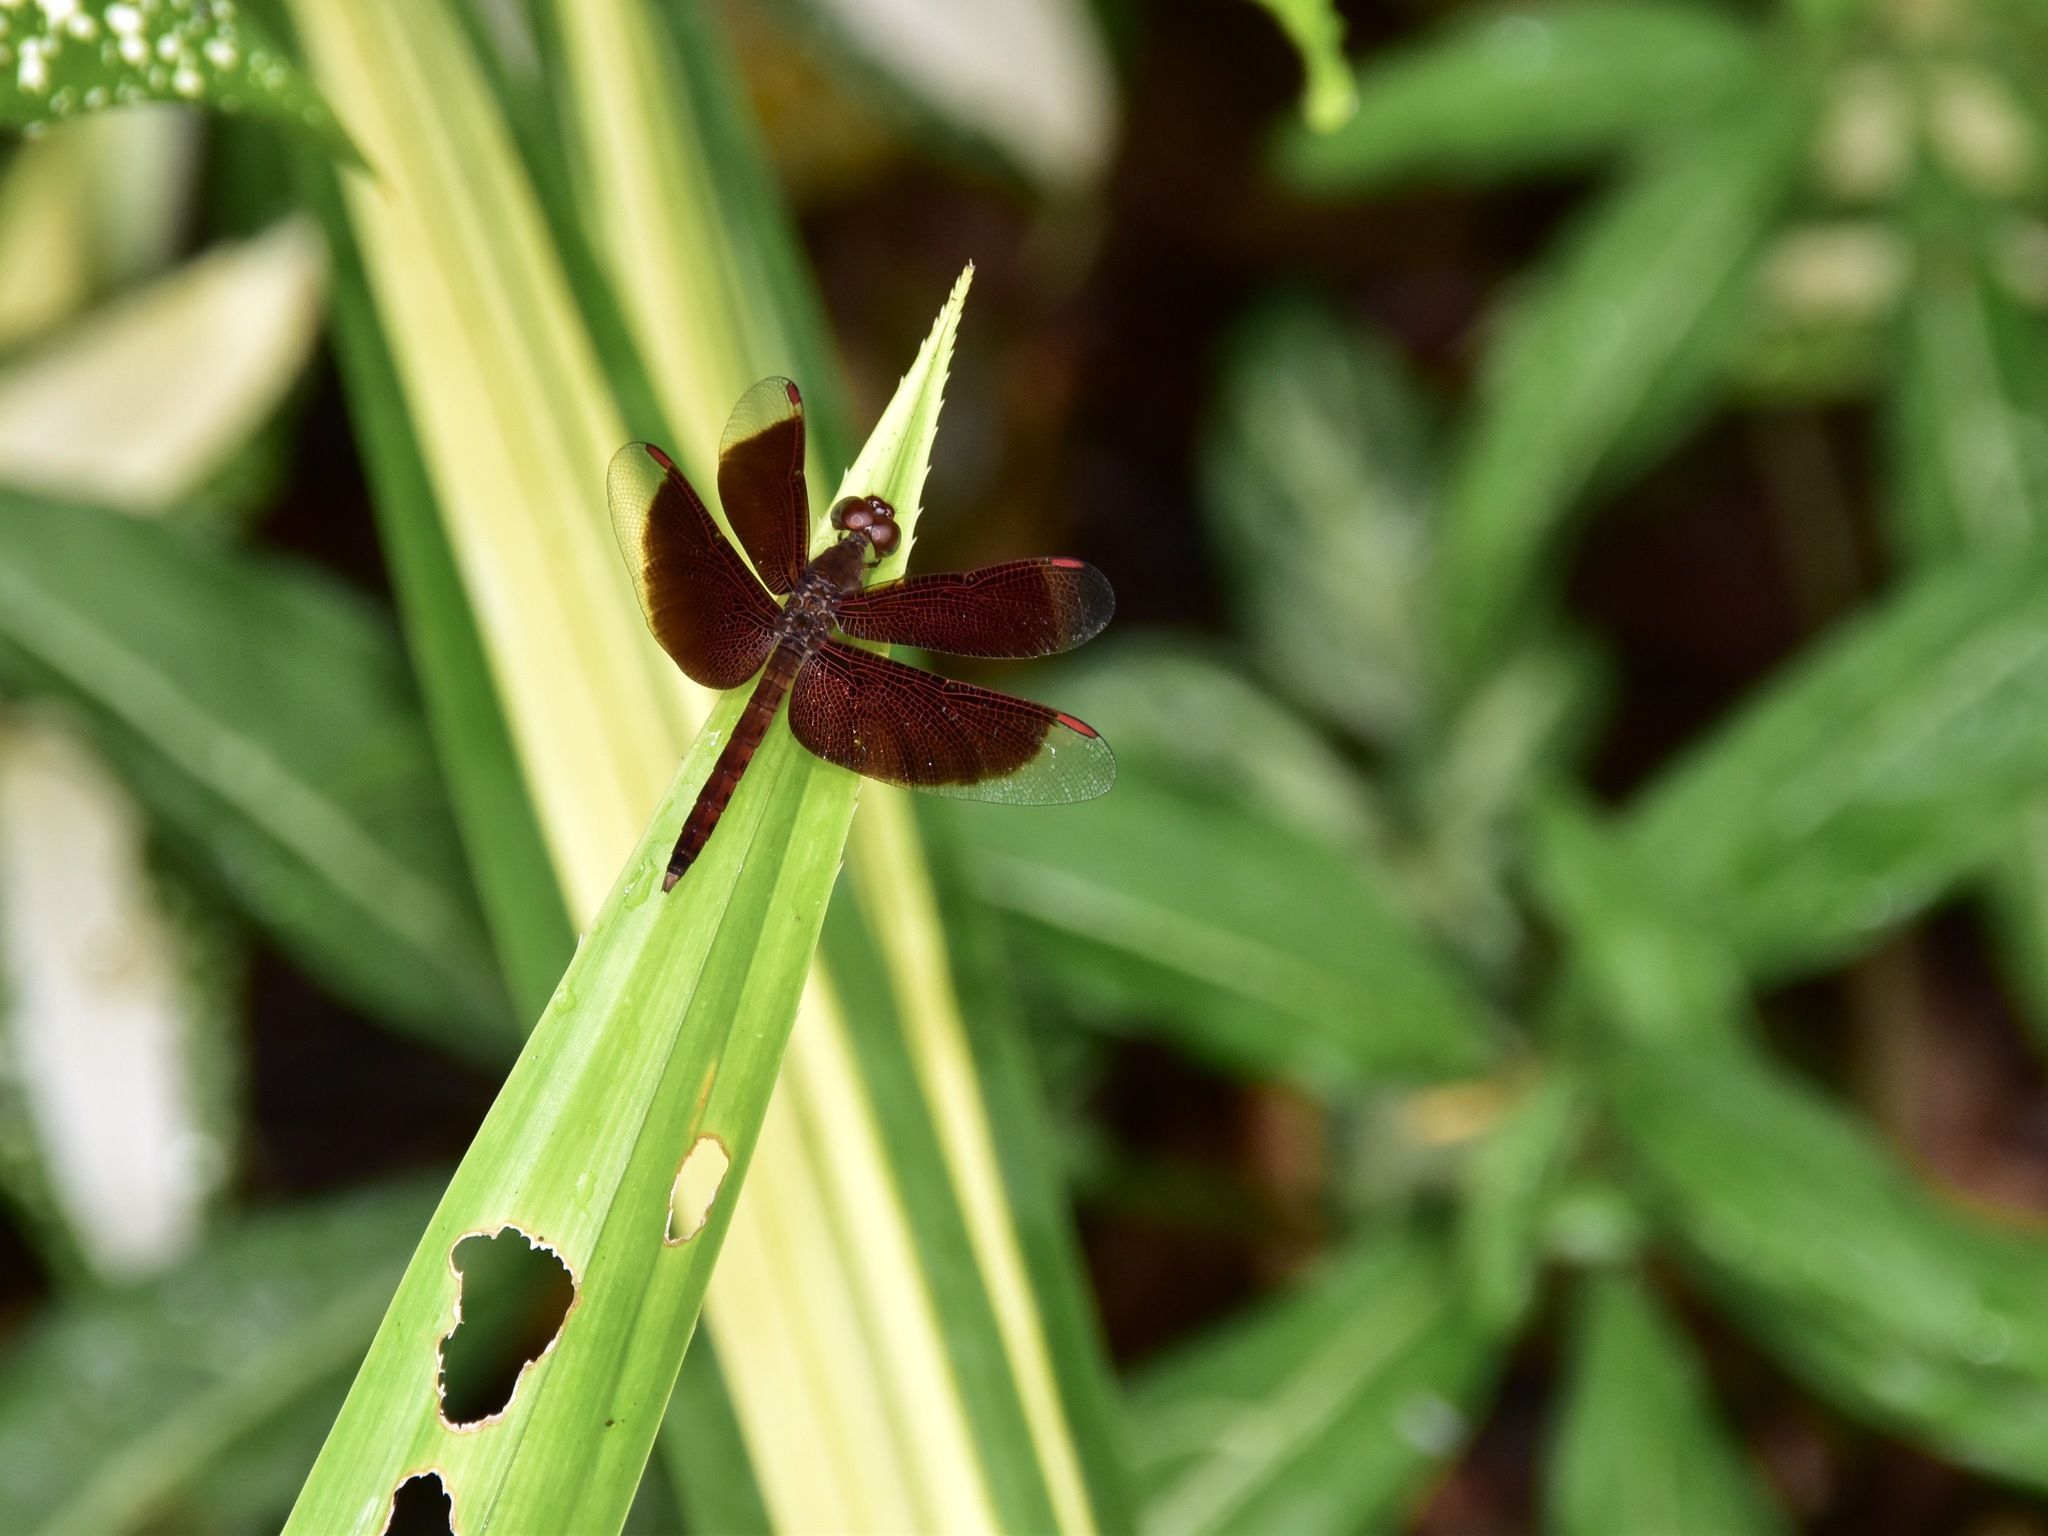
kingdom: Animalia
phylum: Arthropoda
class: Insecta
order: Odonata
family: Libellulidae
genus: Neurothemis
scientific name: Neurothemis fluctuans
